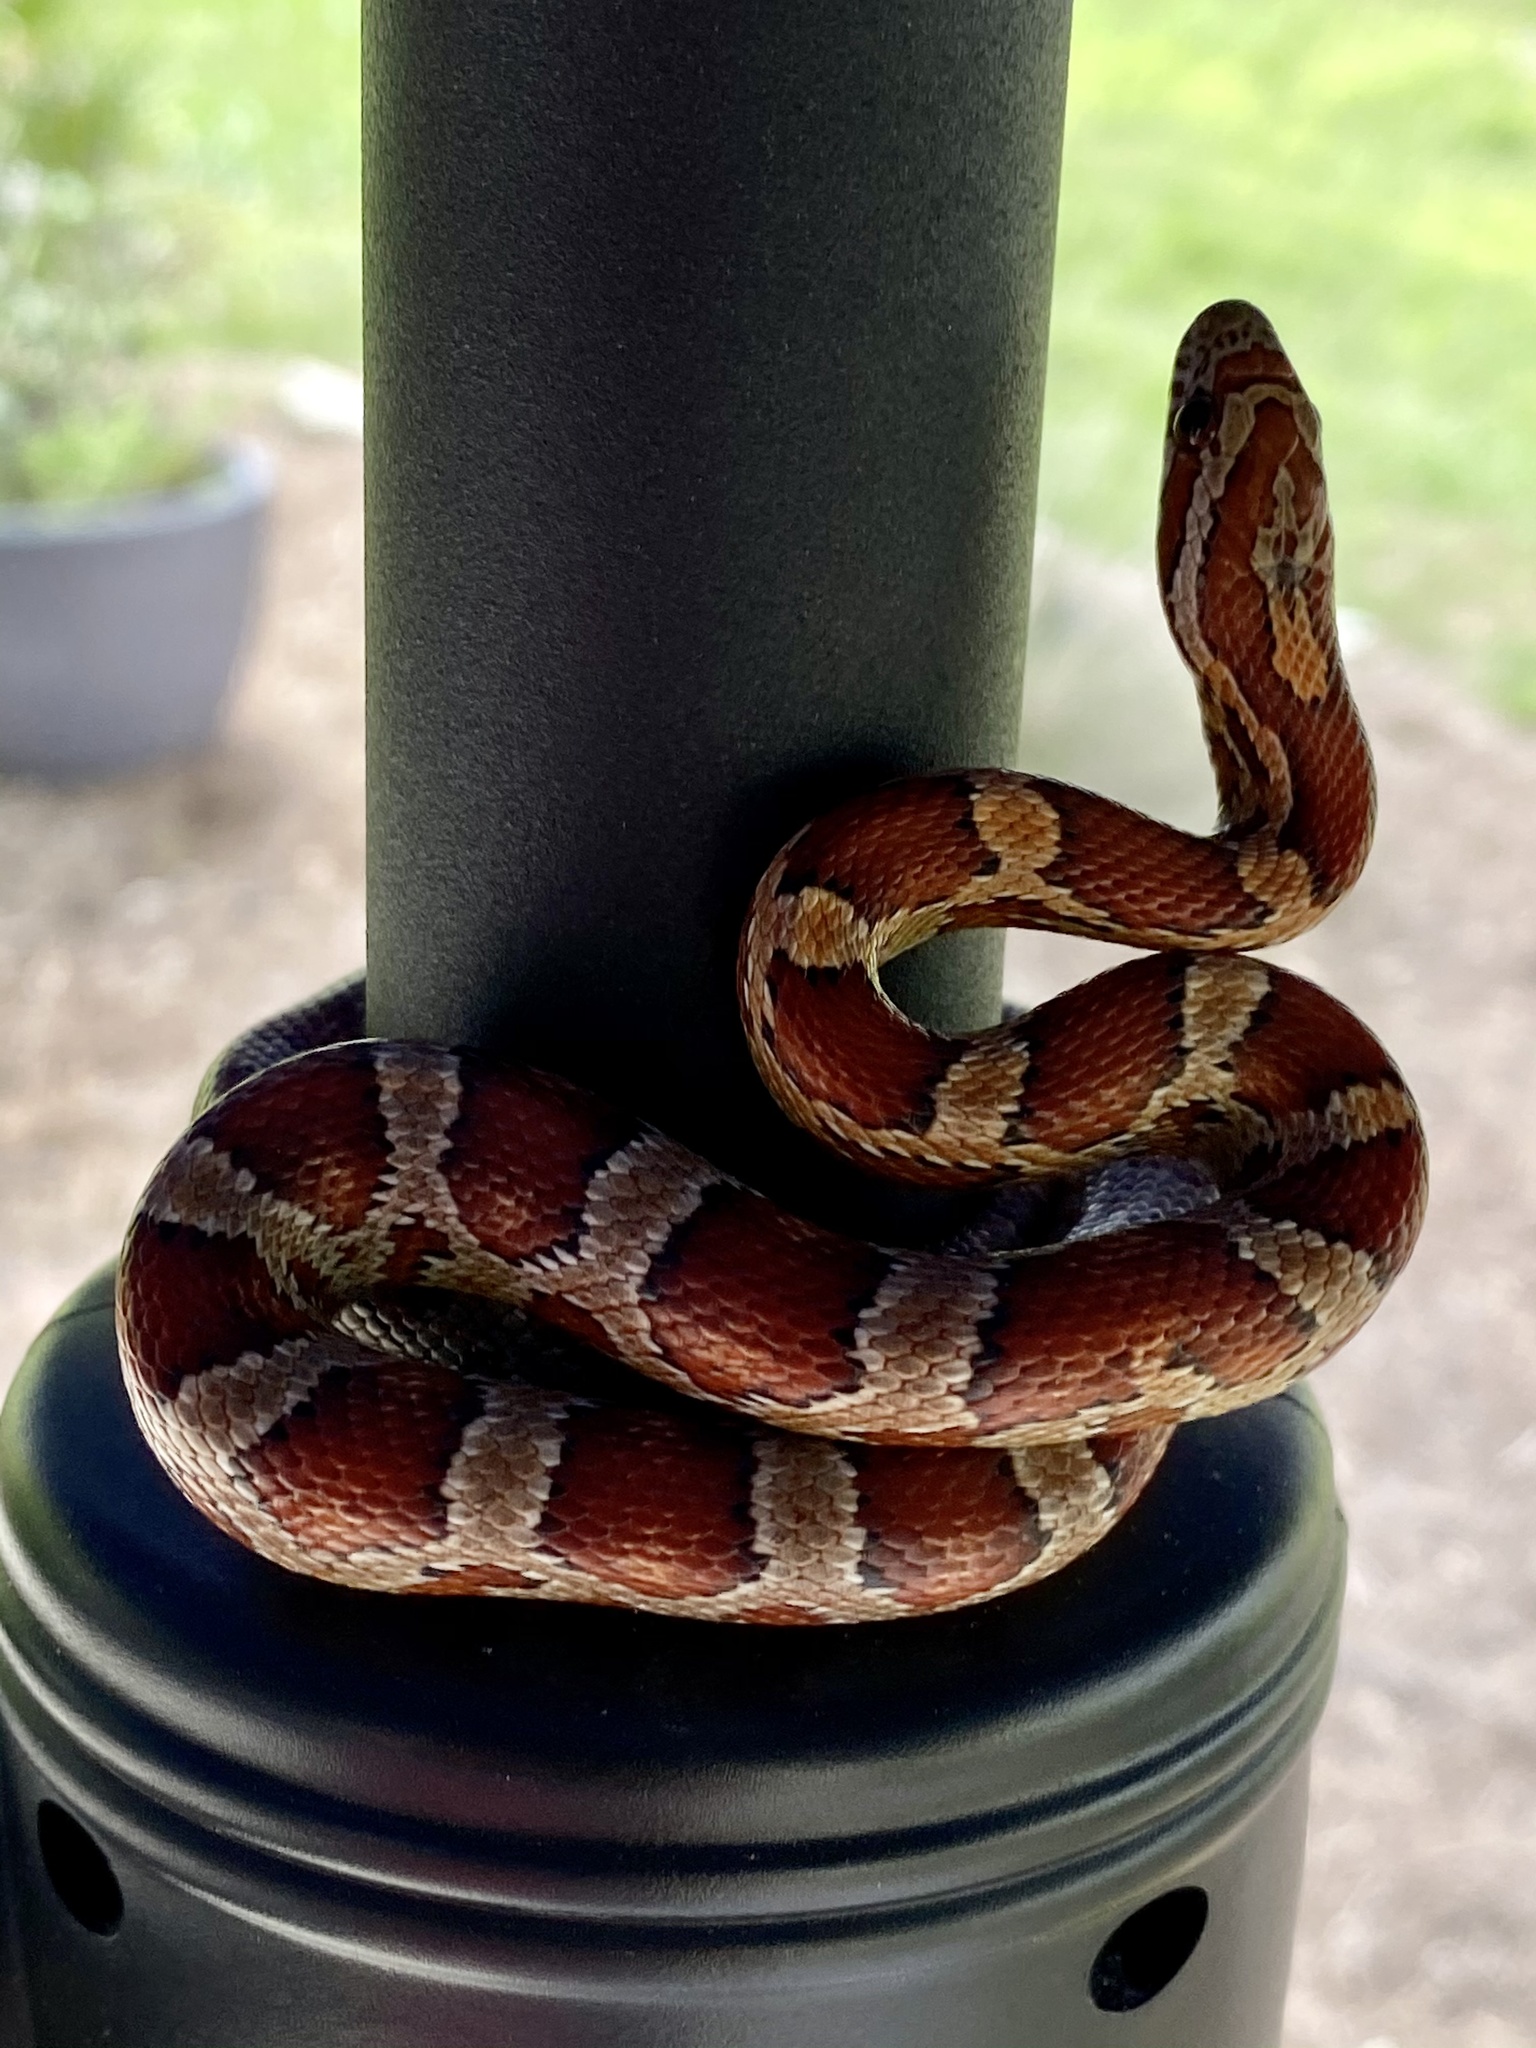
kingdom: Animalia
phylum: Chordata
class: Squamata
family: Colubridae
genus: Pantherophis
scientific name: Pantherophis guttatus
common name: Red cornsnake
